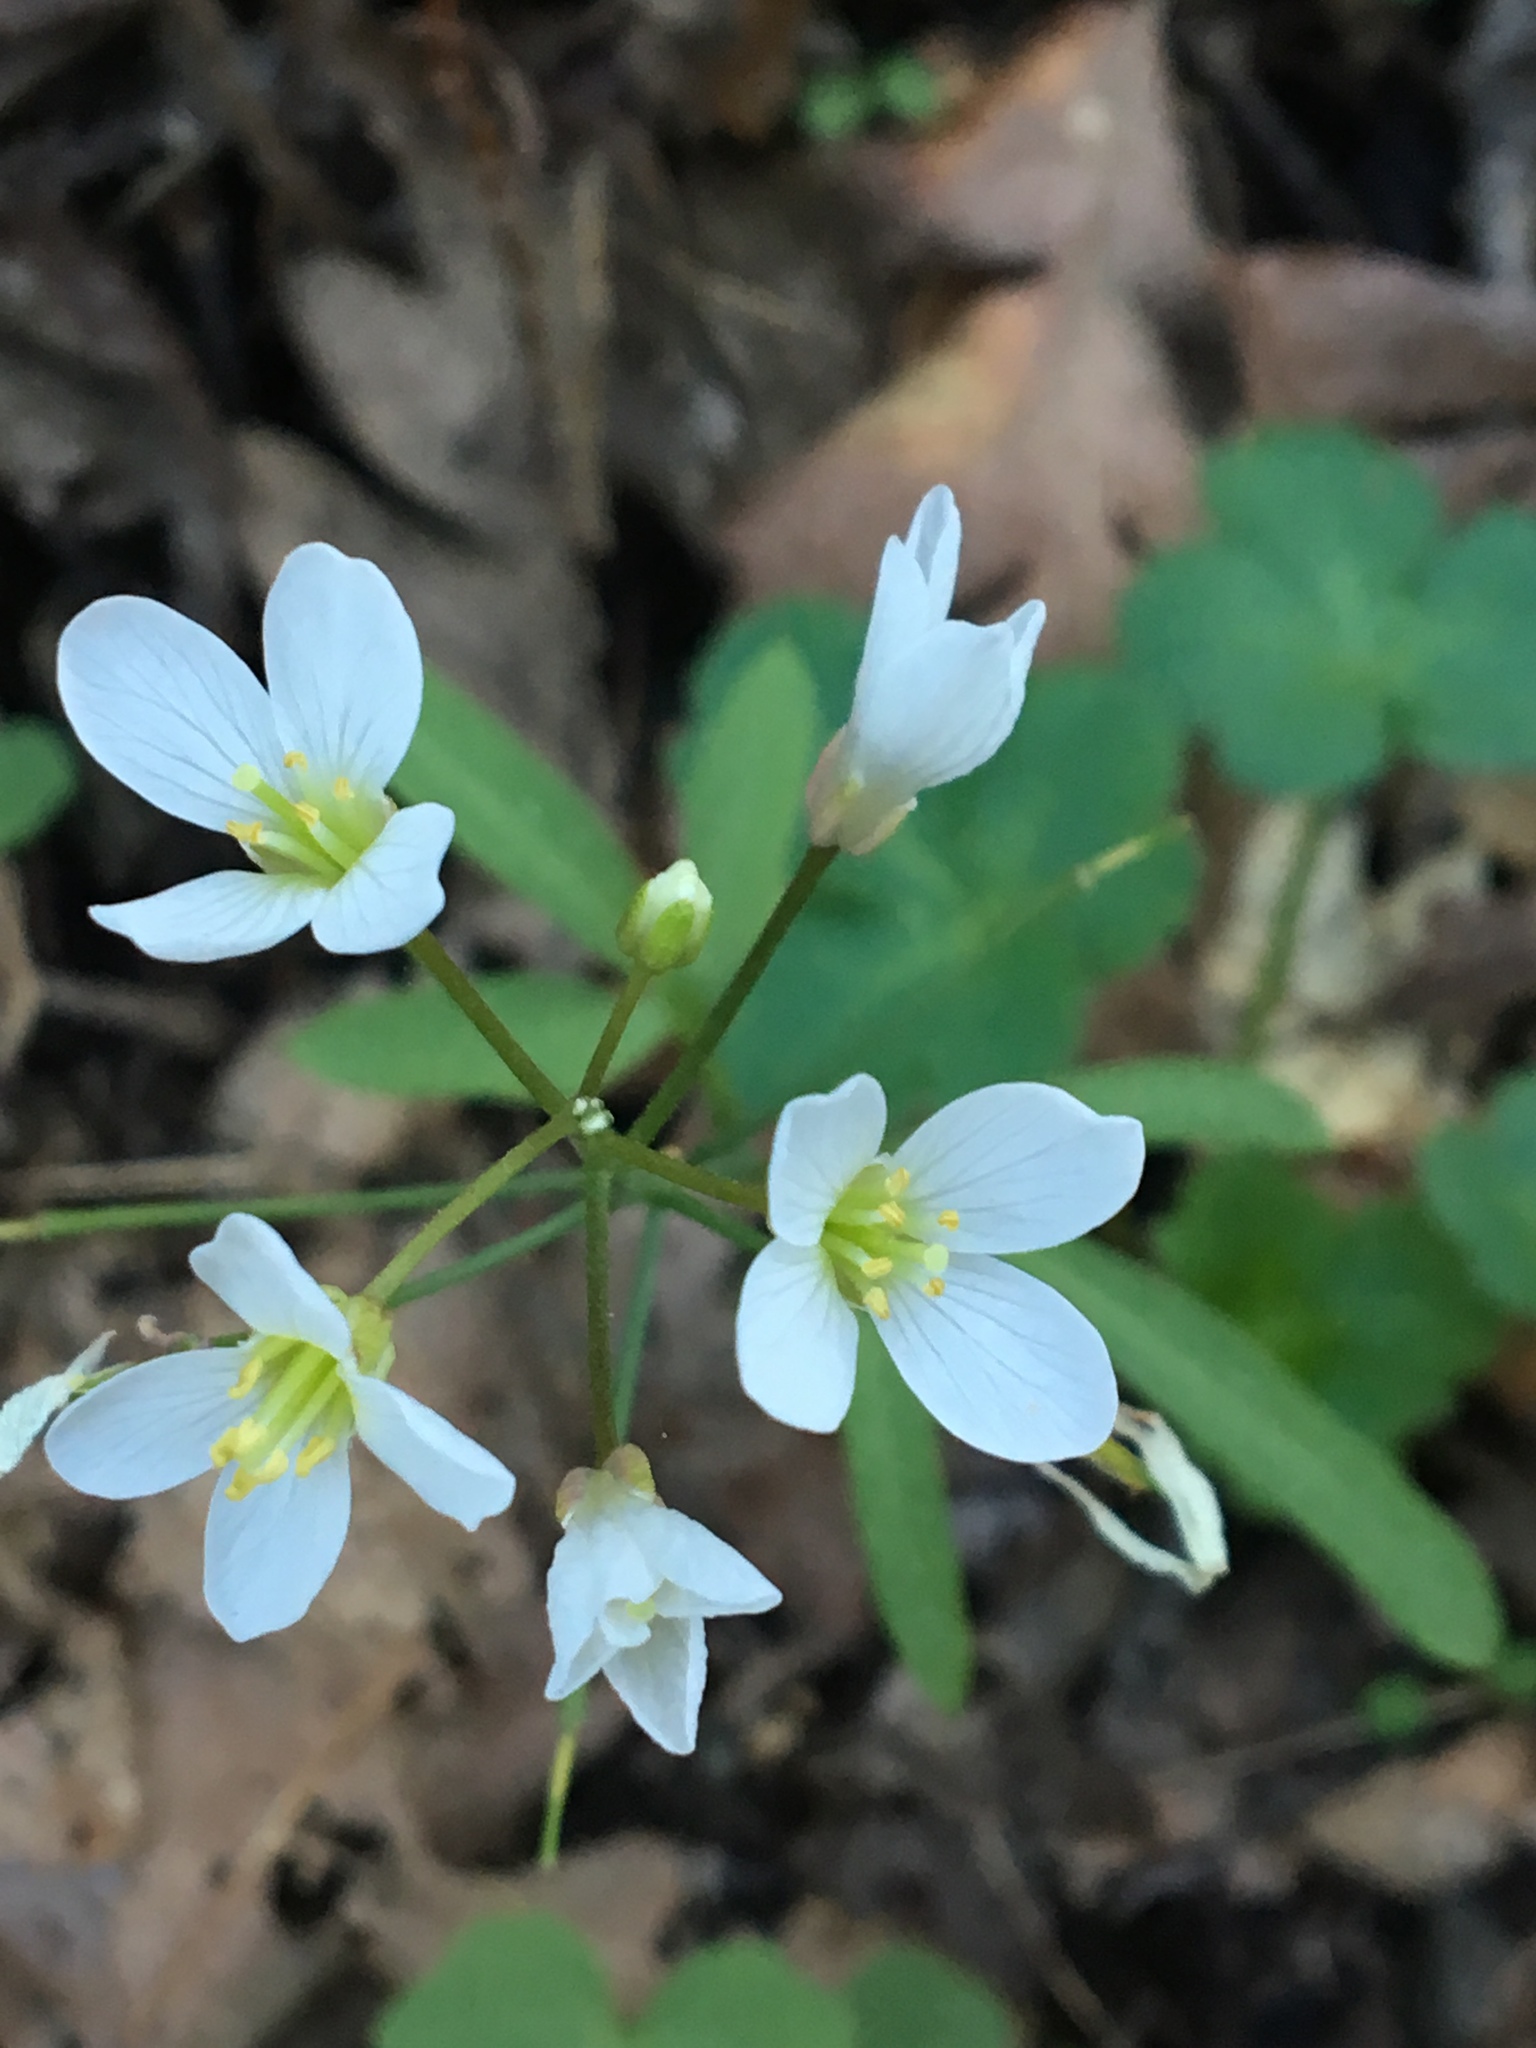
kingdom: Plantae
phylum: Tracheophyta
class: Magnoliopsida
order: Brassicales
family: Brassicaceae
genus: Cardamine
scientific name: Cardamine californica
